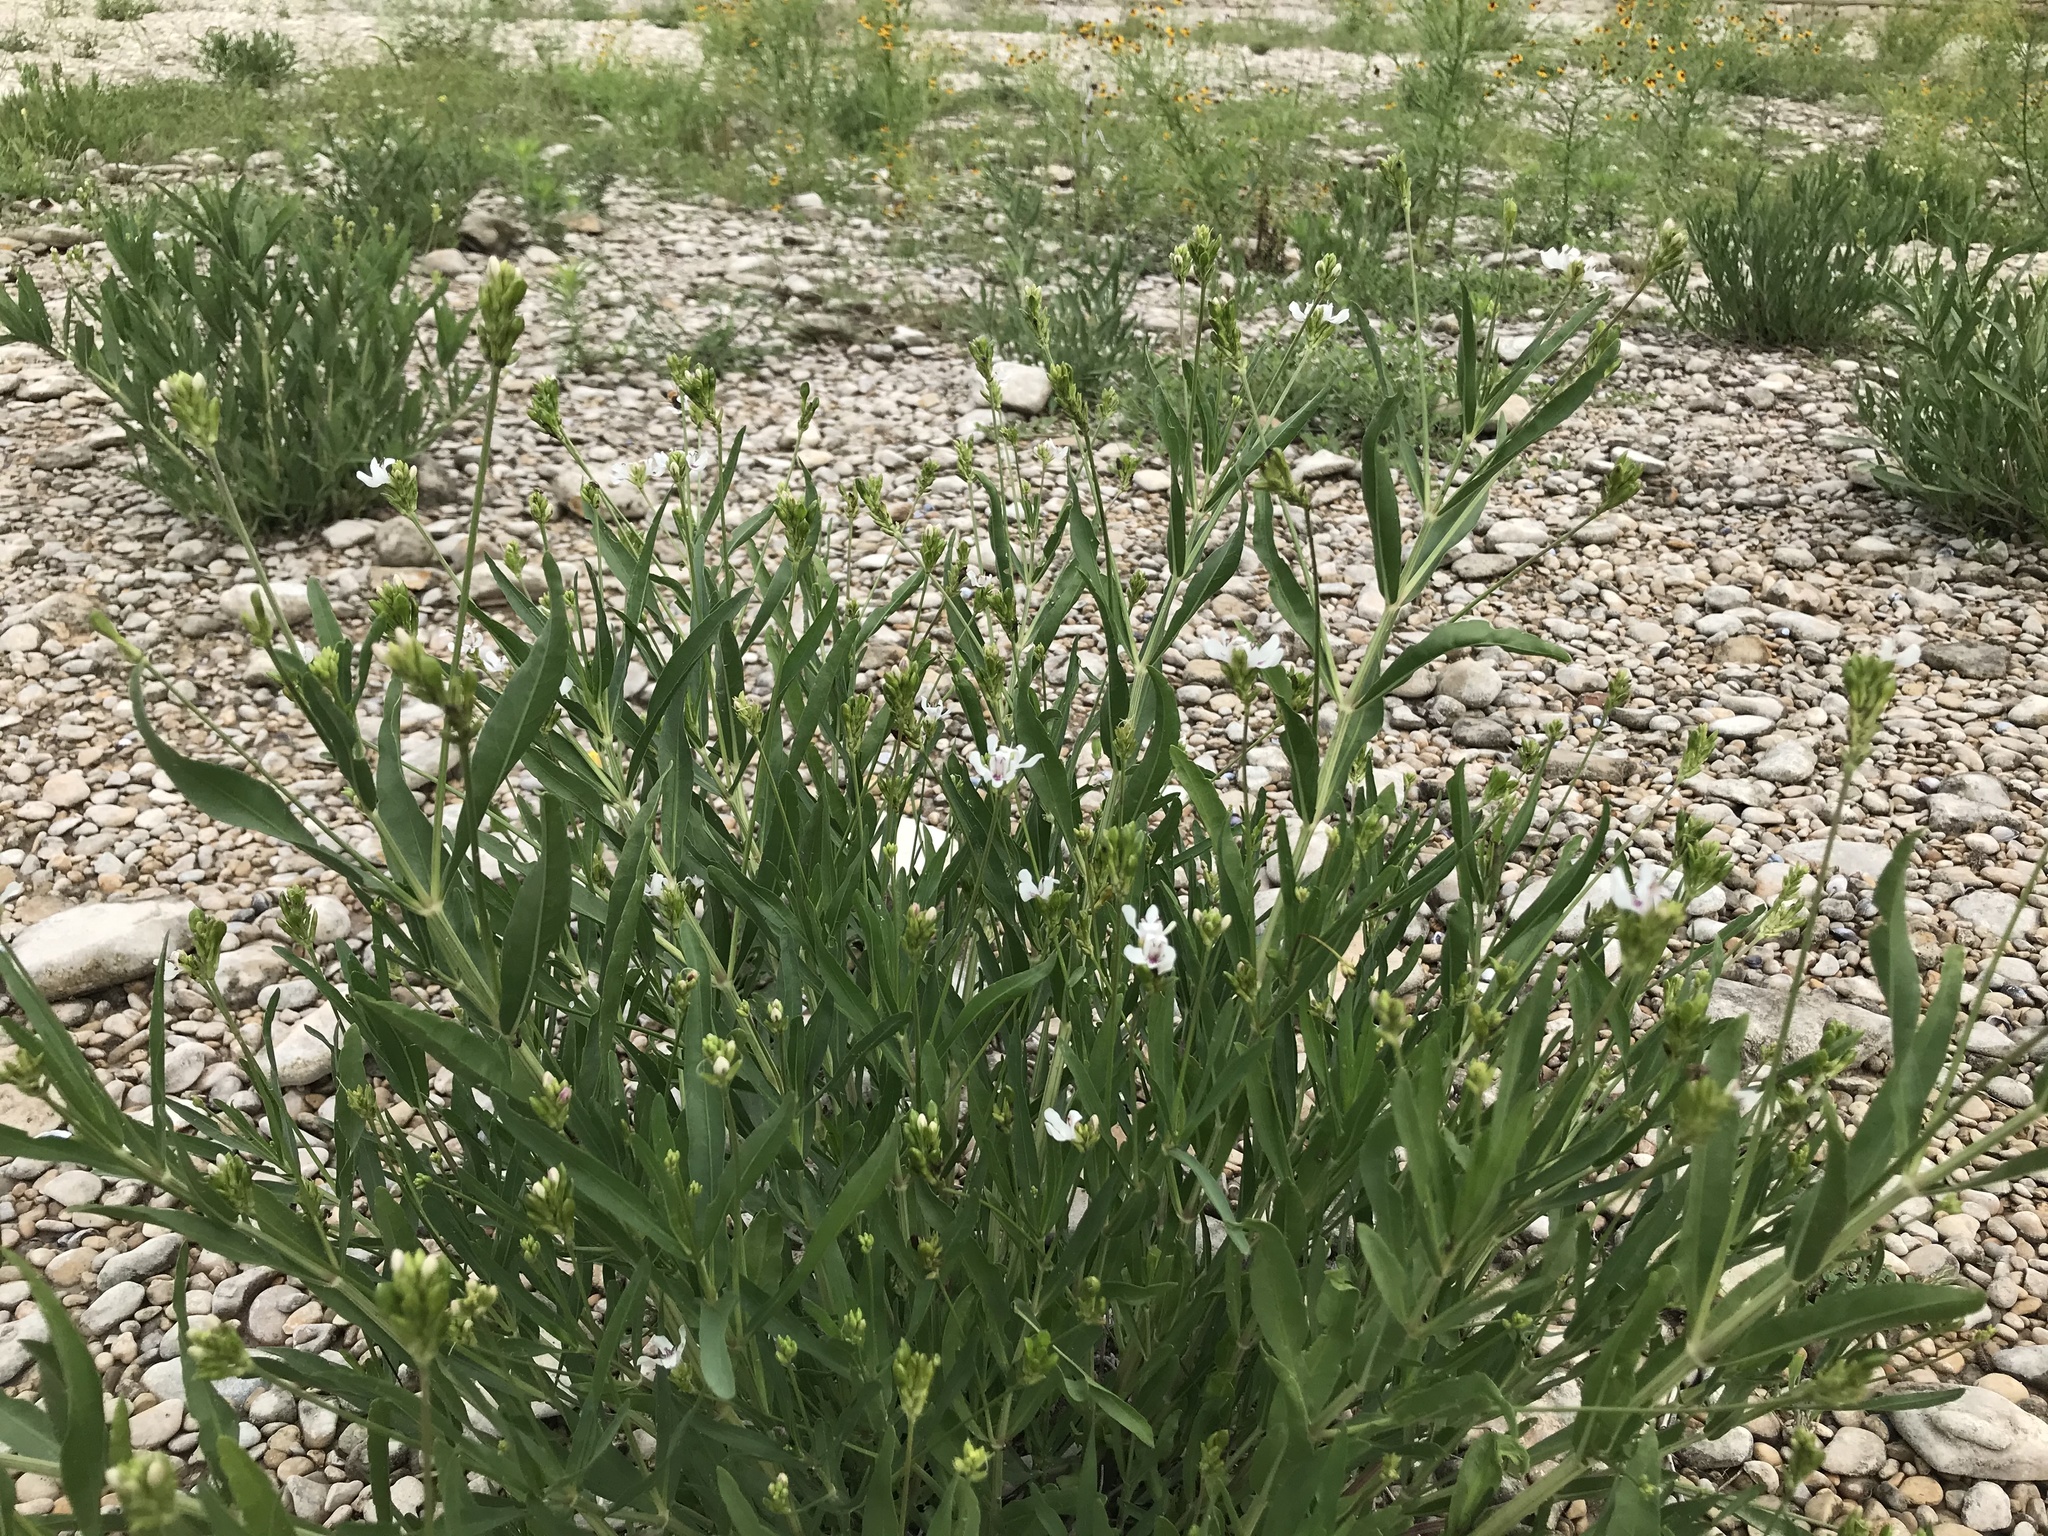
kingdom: Plantae
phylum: Tracheophyta
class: Magnoliopsida
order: Lamiales
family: Acanthaceae
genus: Dianthera
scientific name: Dianthera americana
